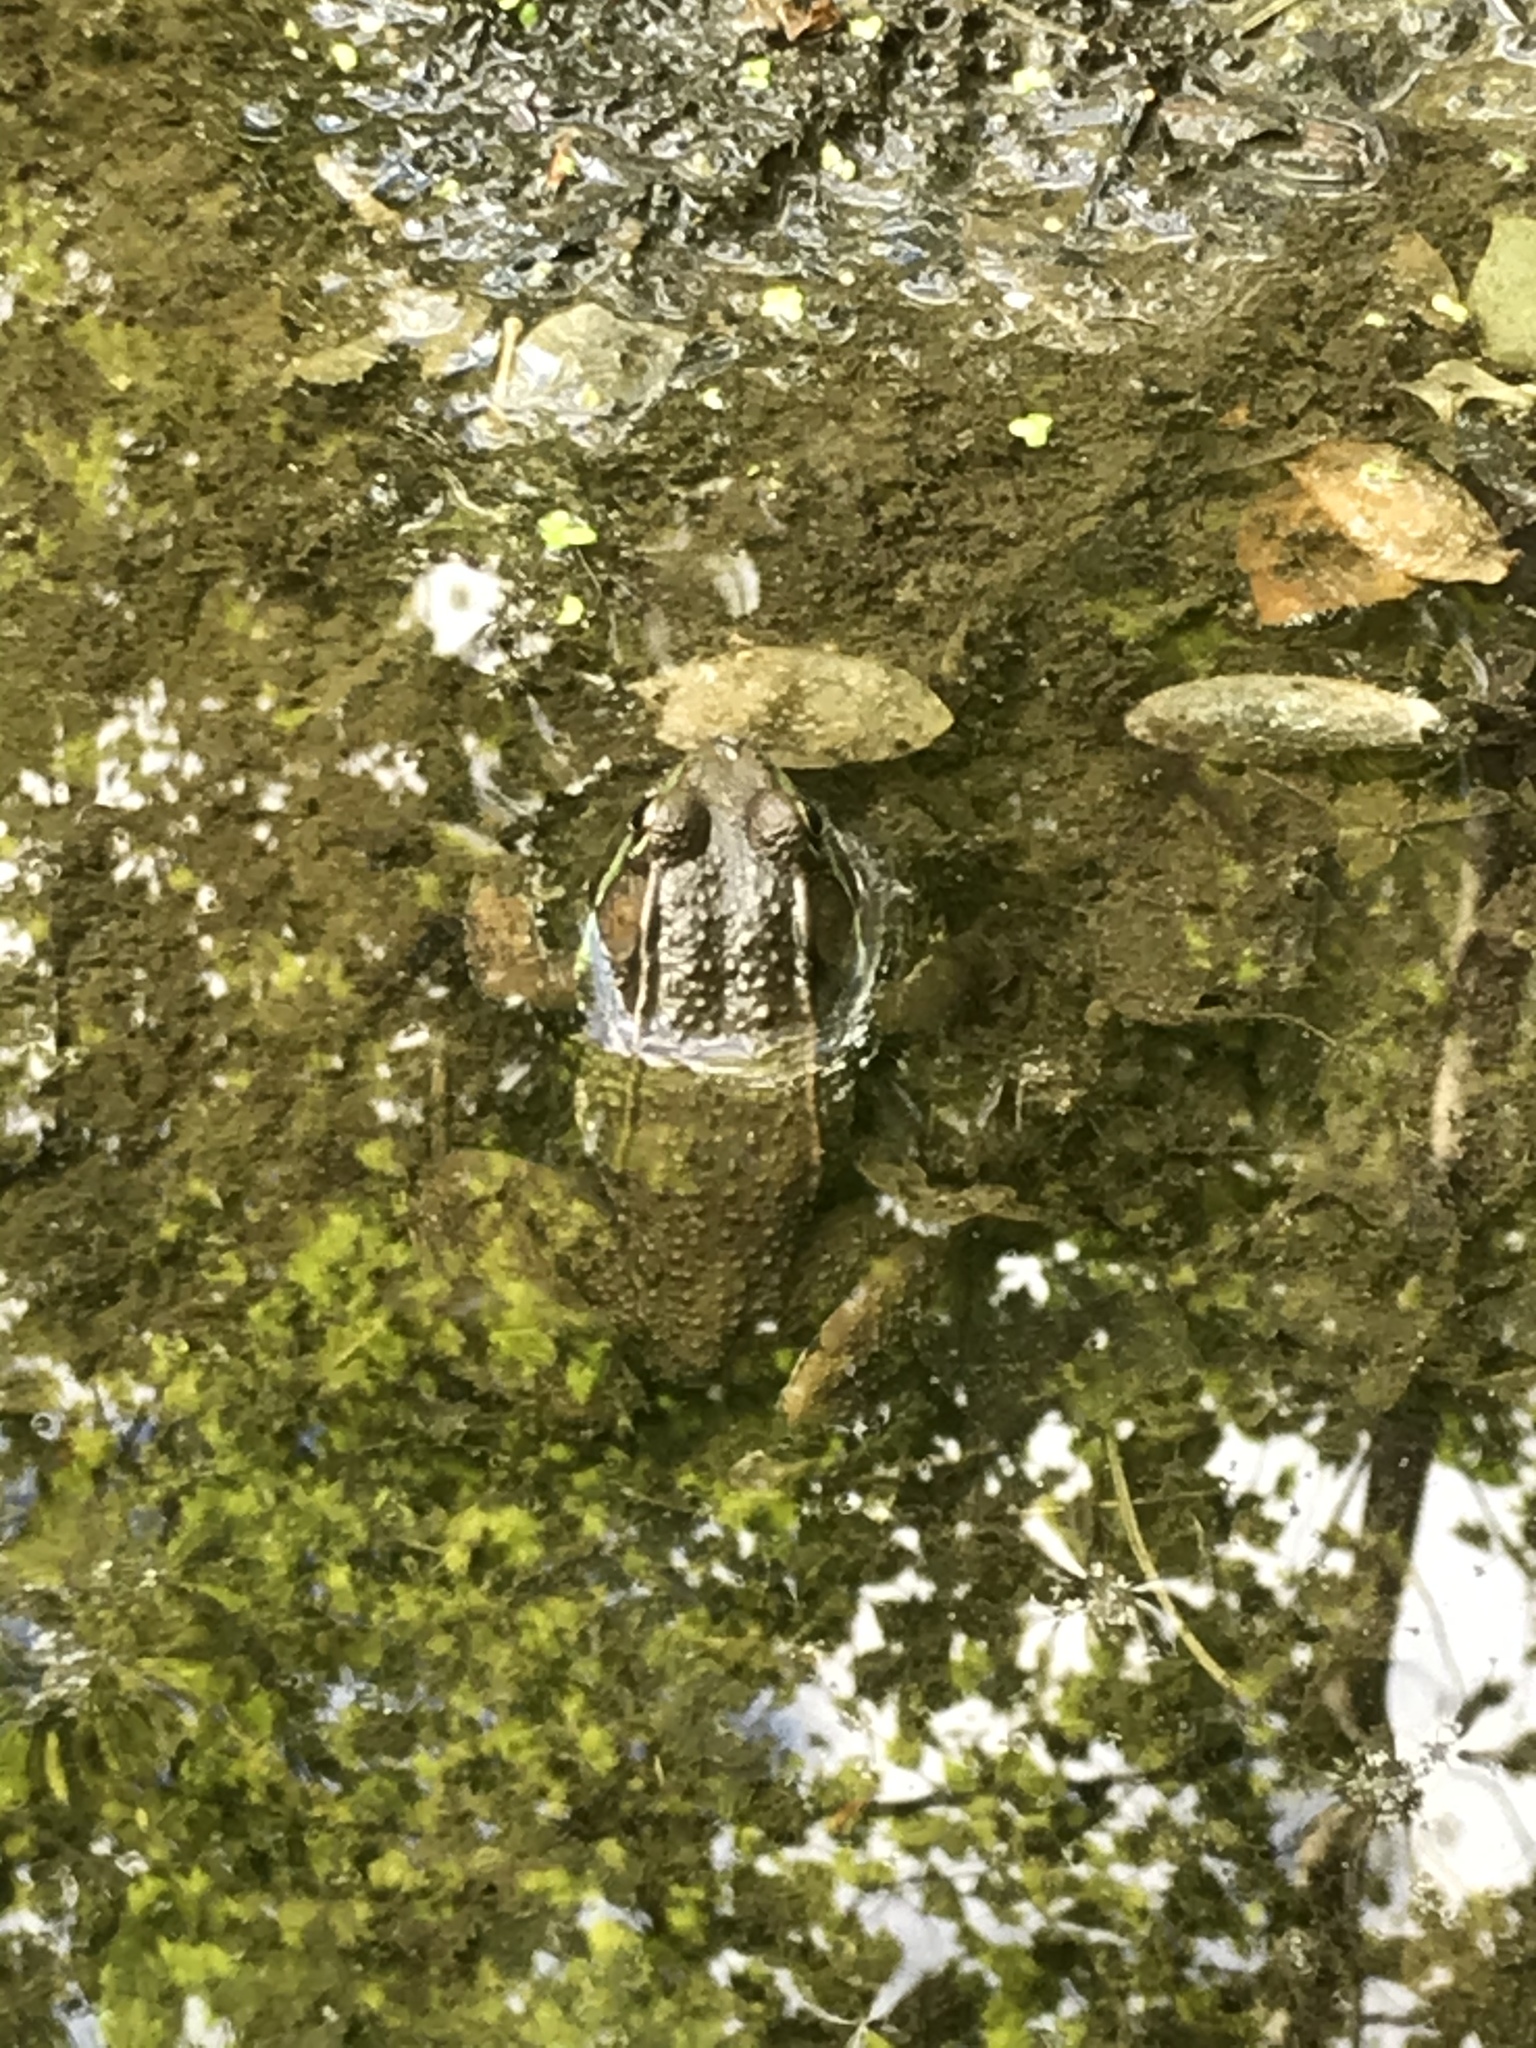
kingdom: Animalia
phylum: Chordata
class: Amphibia
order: Anura
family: Ranidae
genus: Lithobates
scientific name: Lithobates clamitans
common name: Green frog
